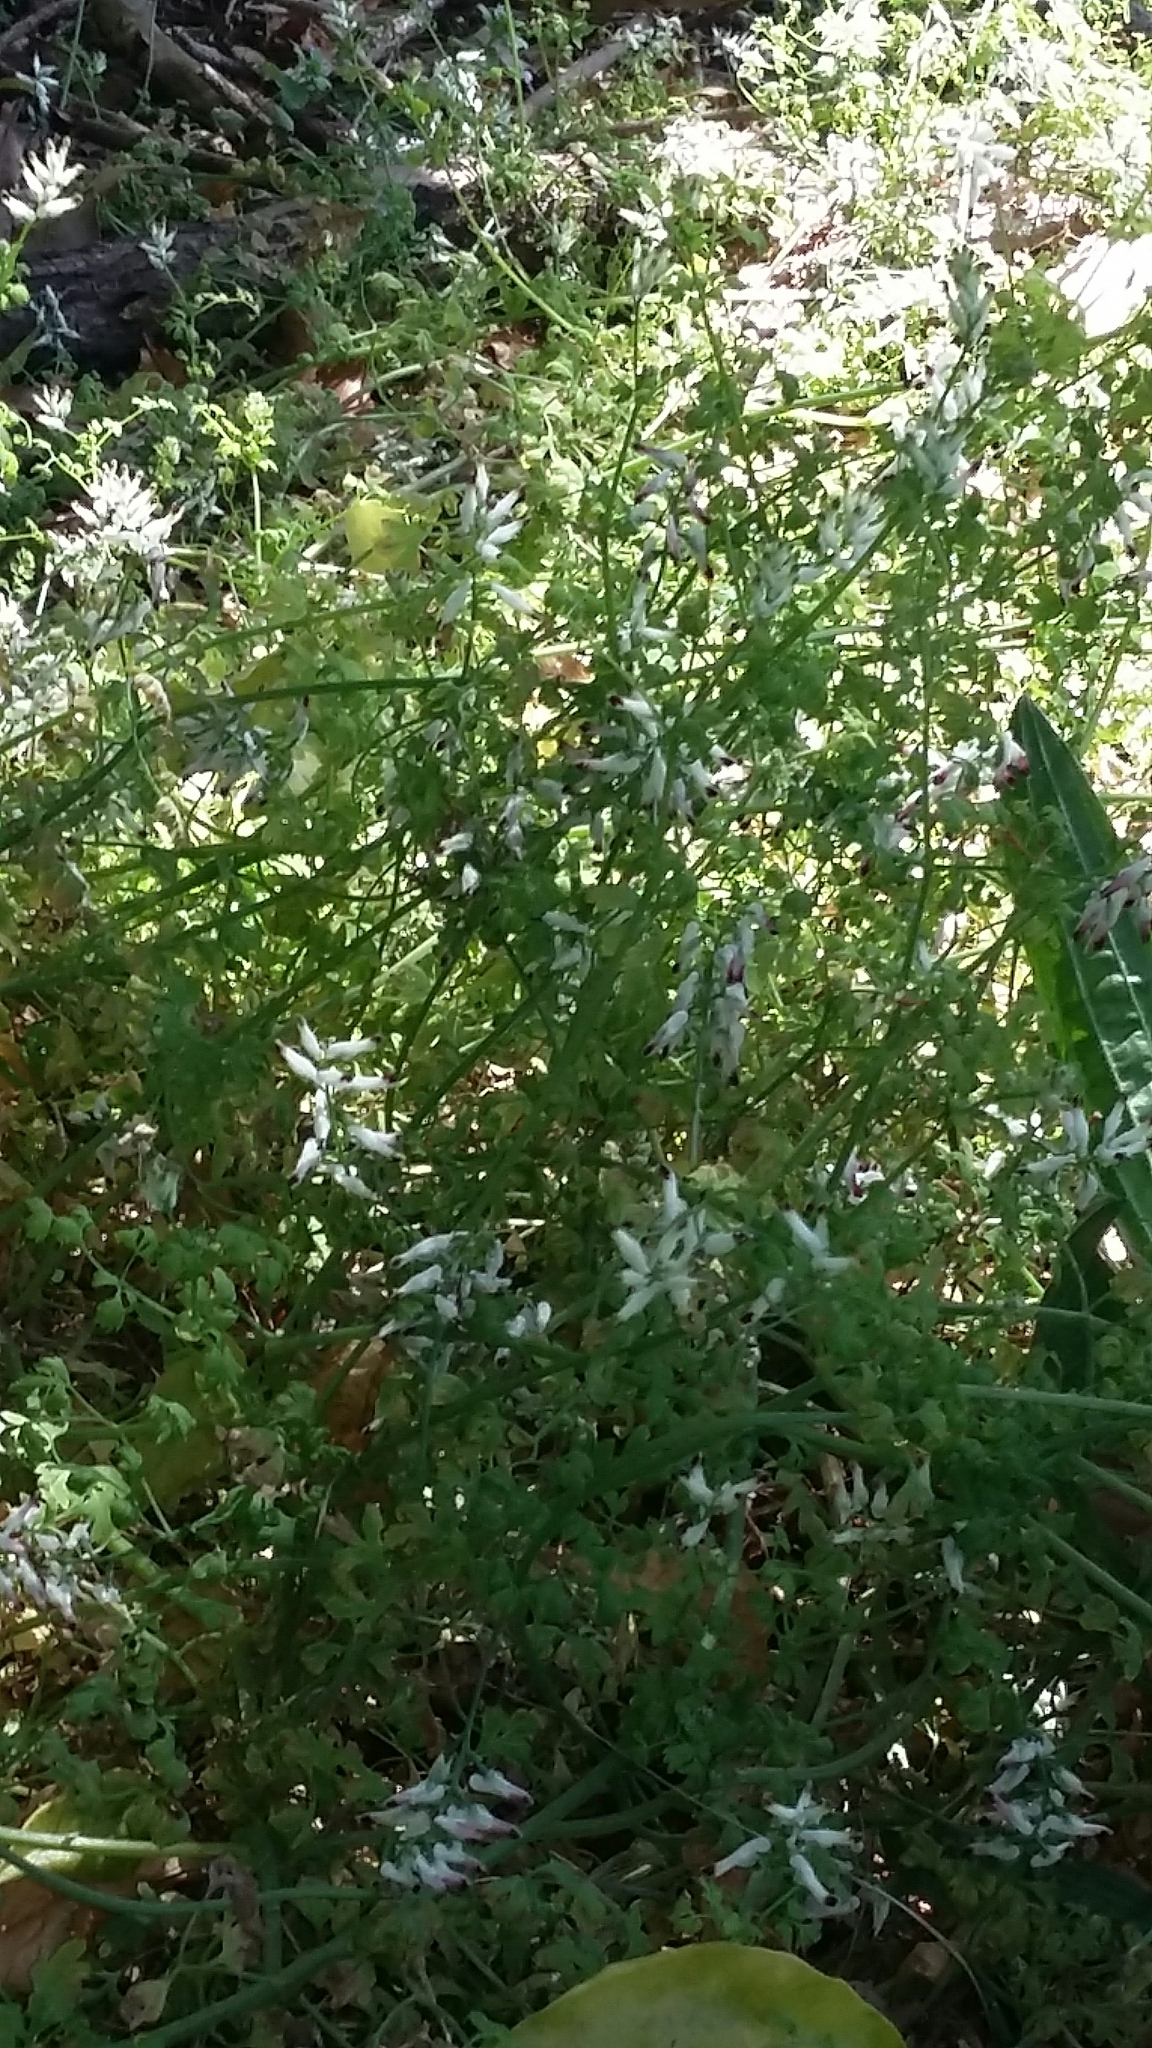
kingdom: Plantae
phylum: Tracheophyta
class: Magnoliopsida
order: Ranunculales
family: Papaveraceae
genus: Fumaria
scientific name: Fumaria capreolata
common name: White ramping-fumitory
